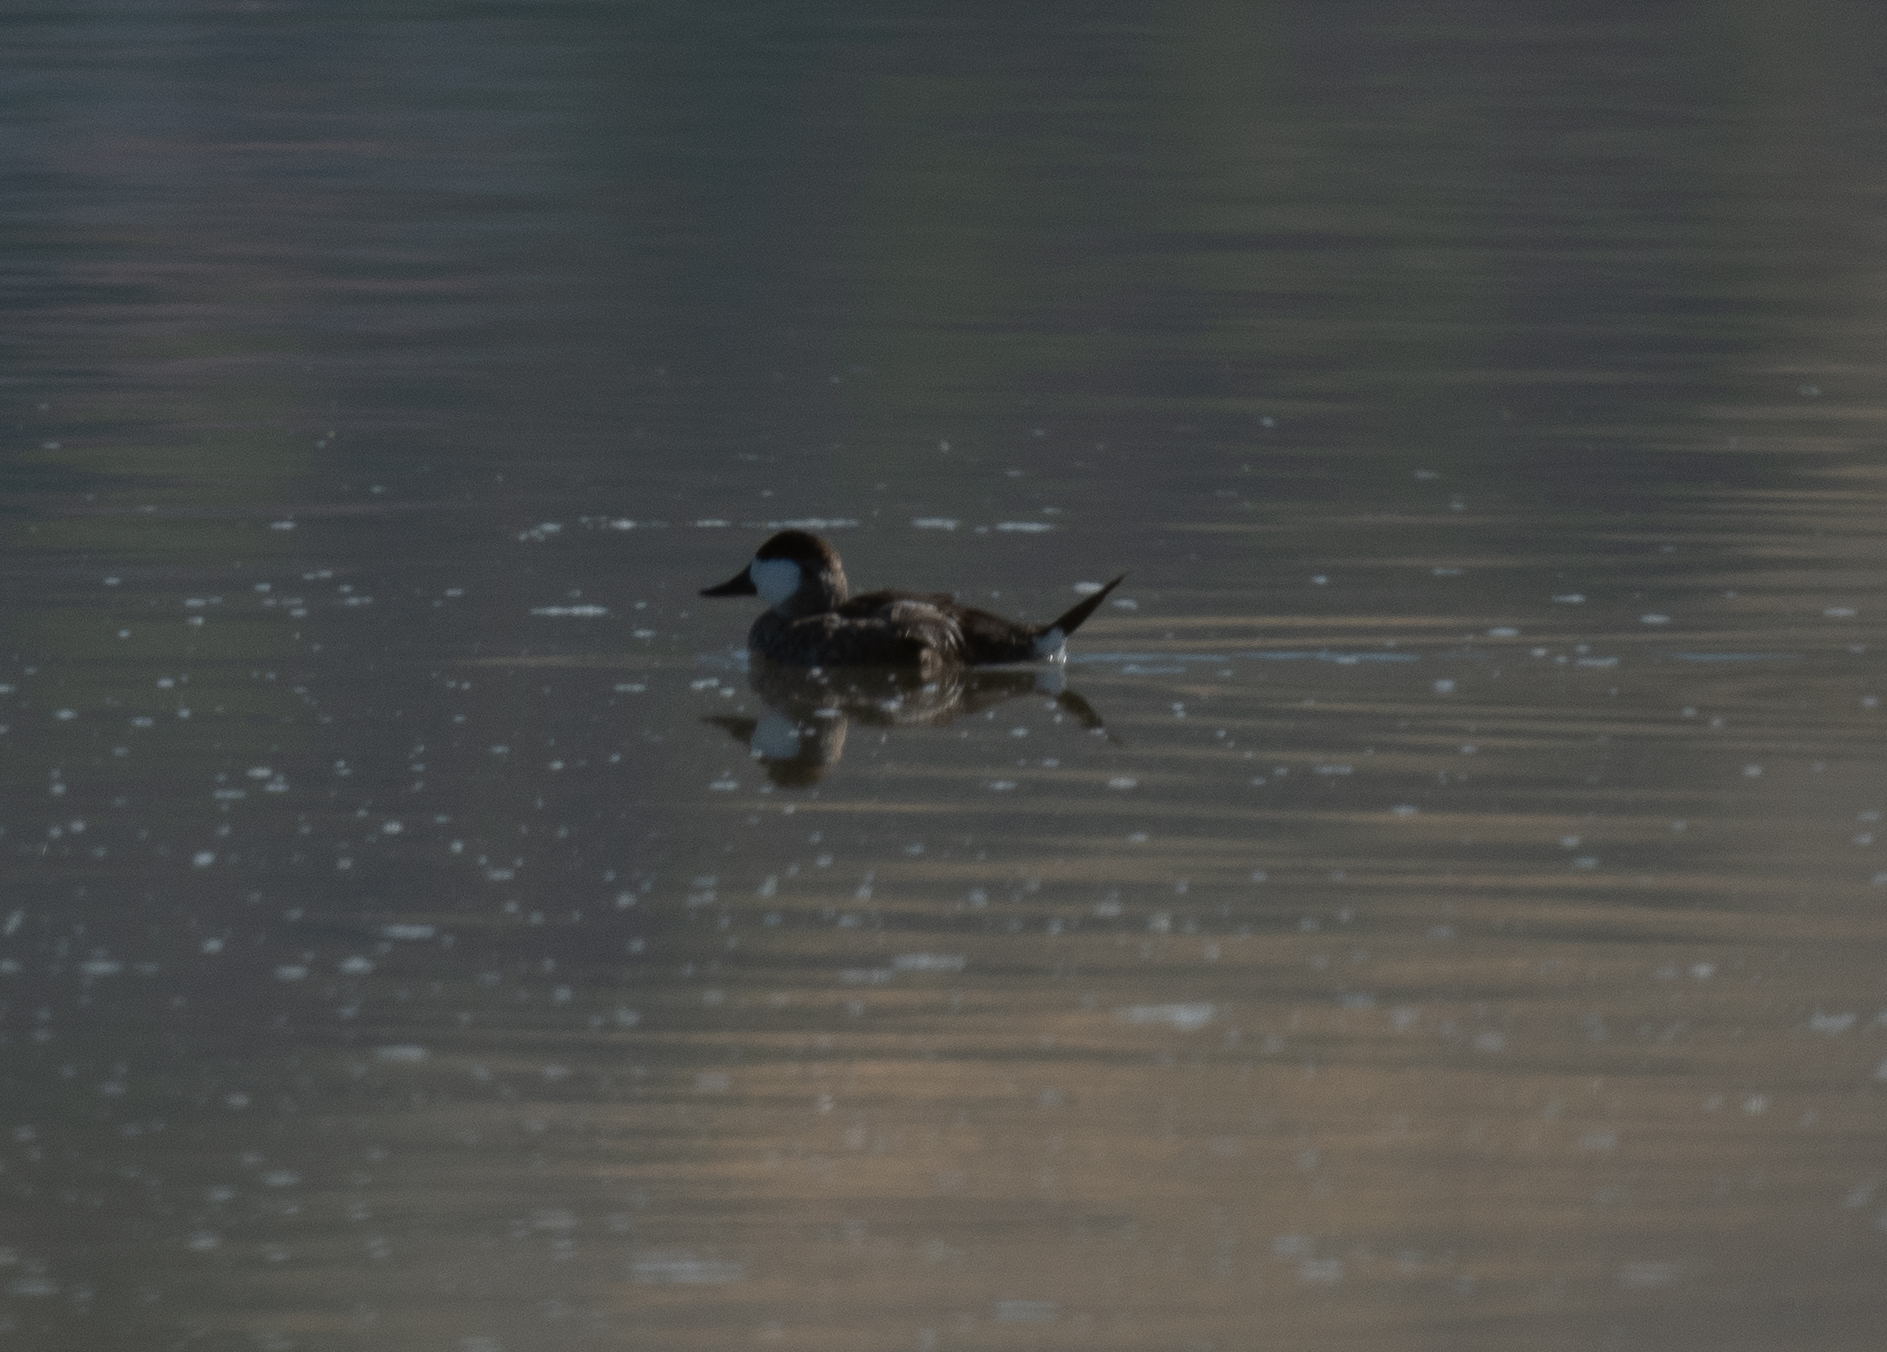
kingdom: Animalia
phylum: Chordata
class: Aves
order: Anseriformes
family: Anatidae
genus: Oxyura
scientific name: Oxyura jamaicensis
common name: Ruddy duck
